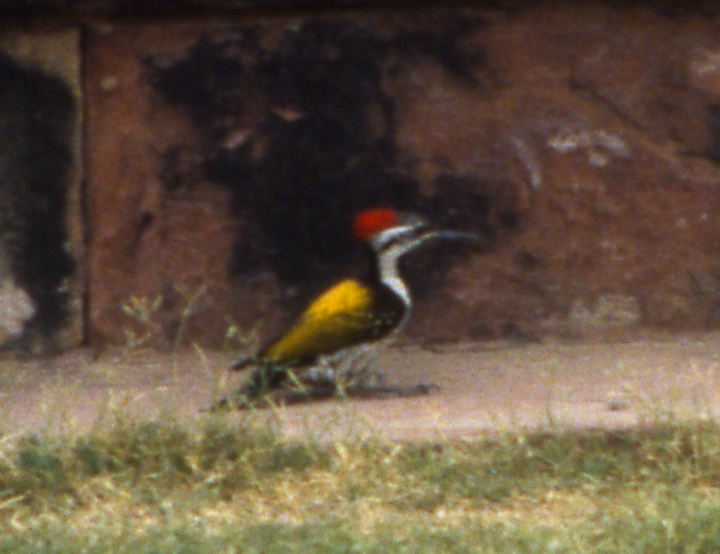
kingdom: Animalia
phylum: Chordata
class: Aves
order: Piciformes
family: Picidae
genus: Dinopium
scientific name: Dinopium benghalense
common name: Black-rumped flameback
